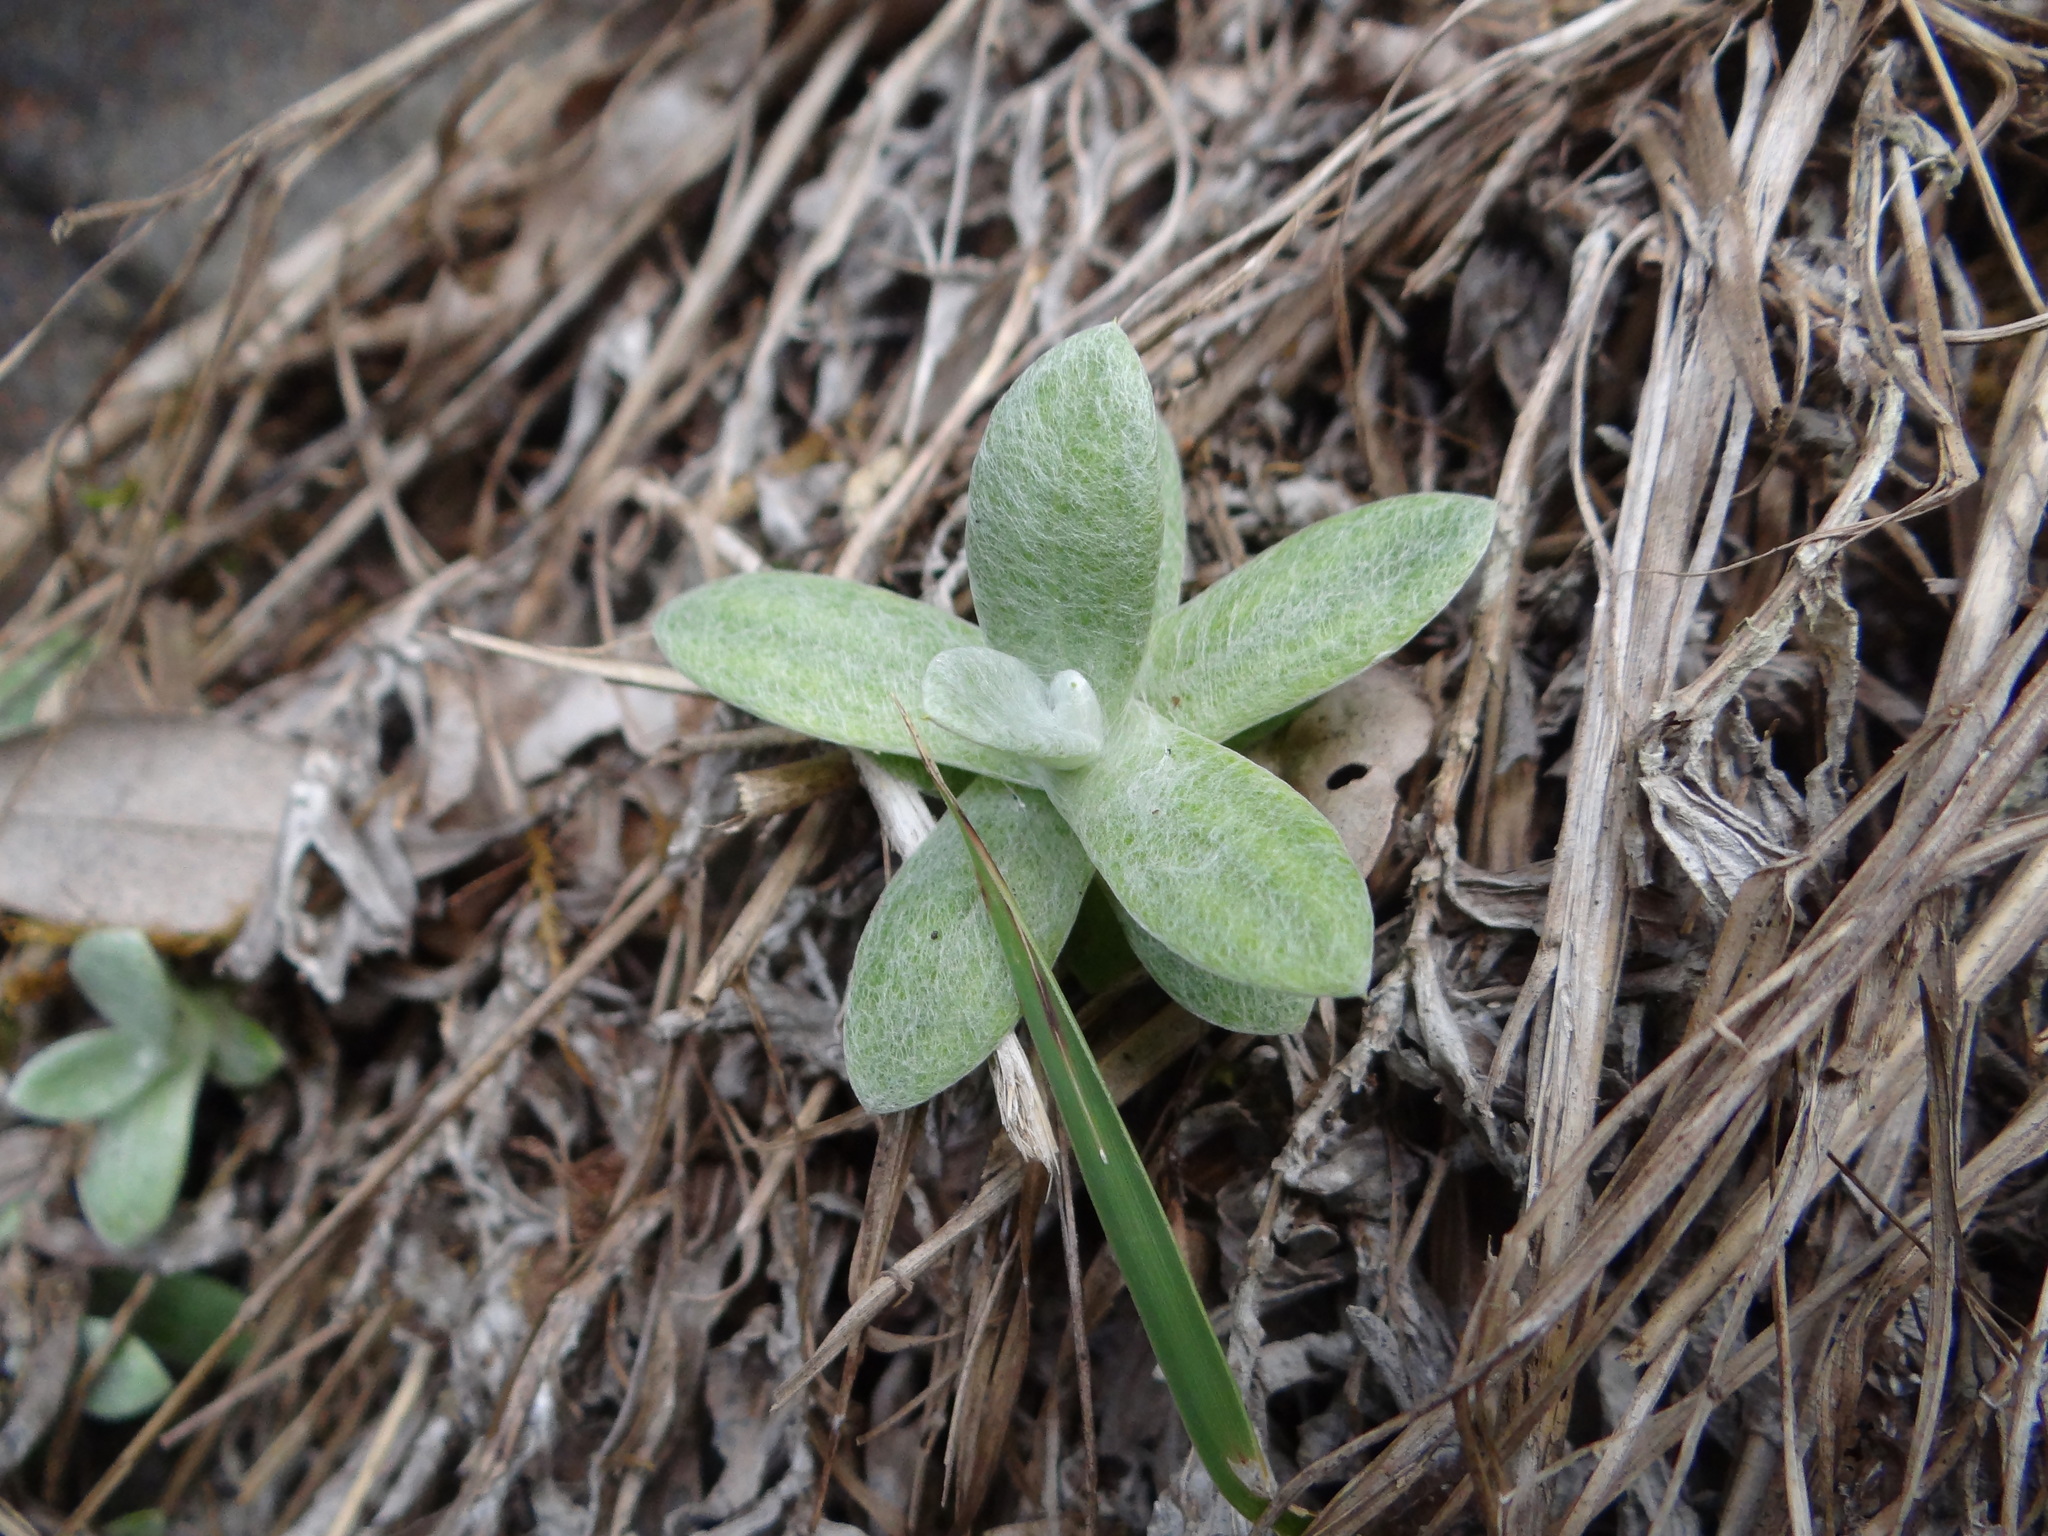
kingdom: Plantae
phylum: Tracheophyta
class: Magnoliopsida
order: Asterales
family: Asteraceae
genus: Anaphalis
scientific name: Anaphalis morrisonicola
